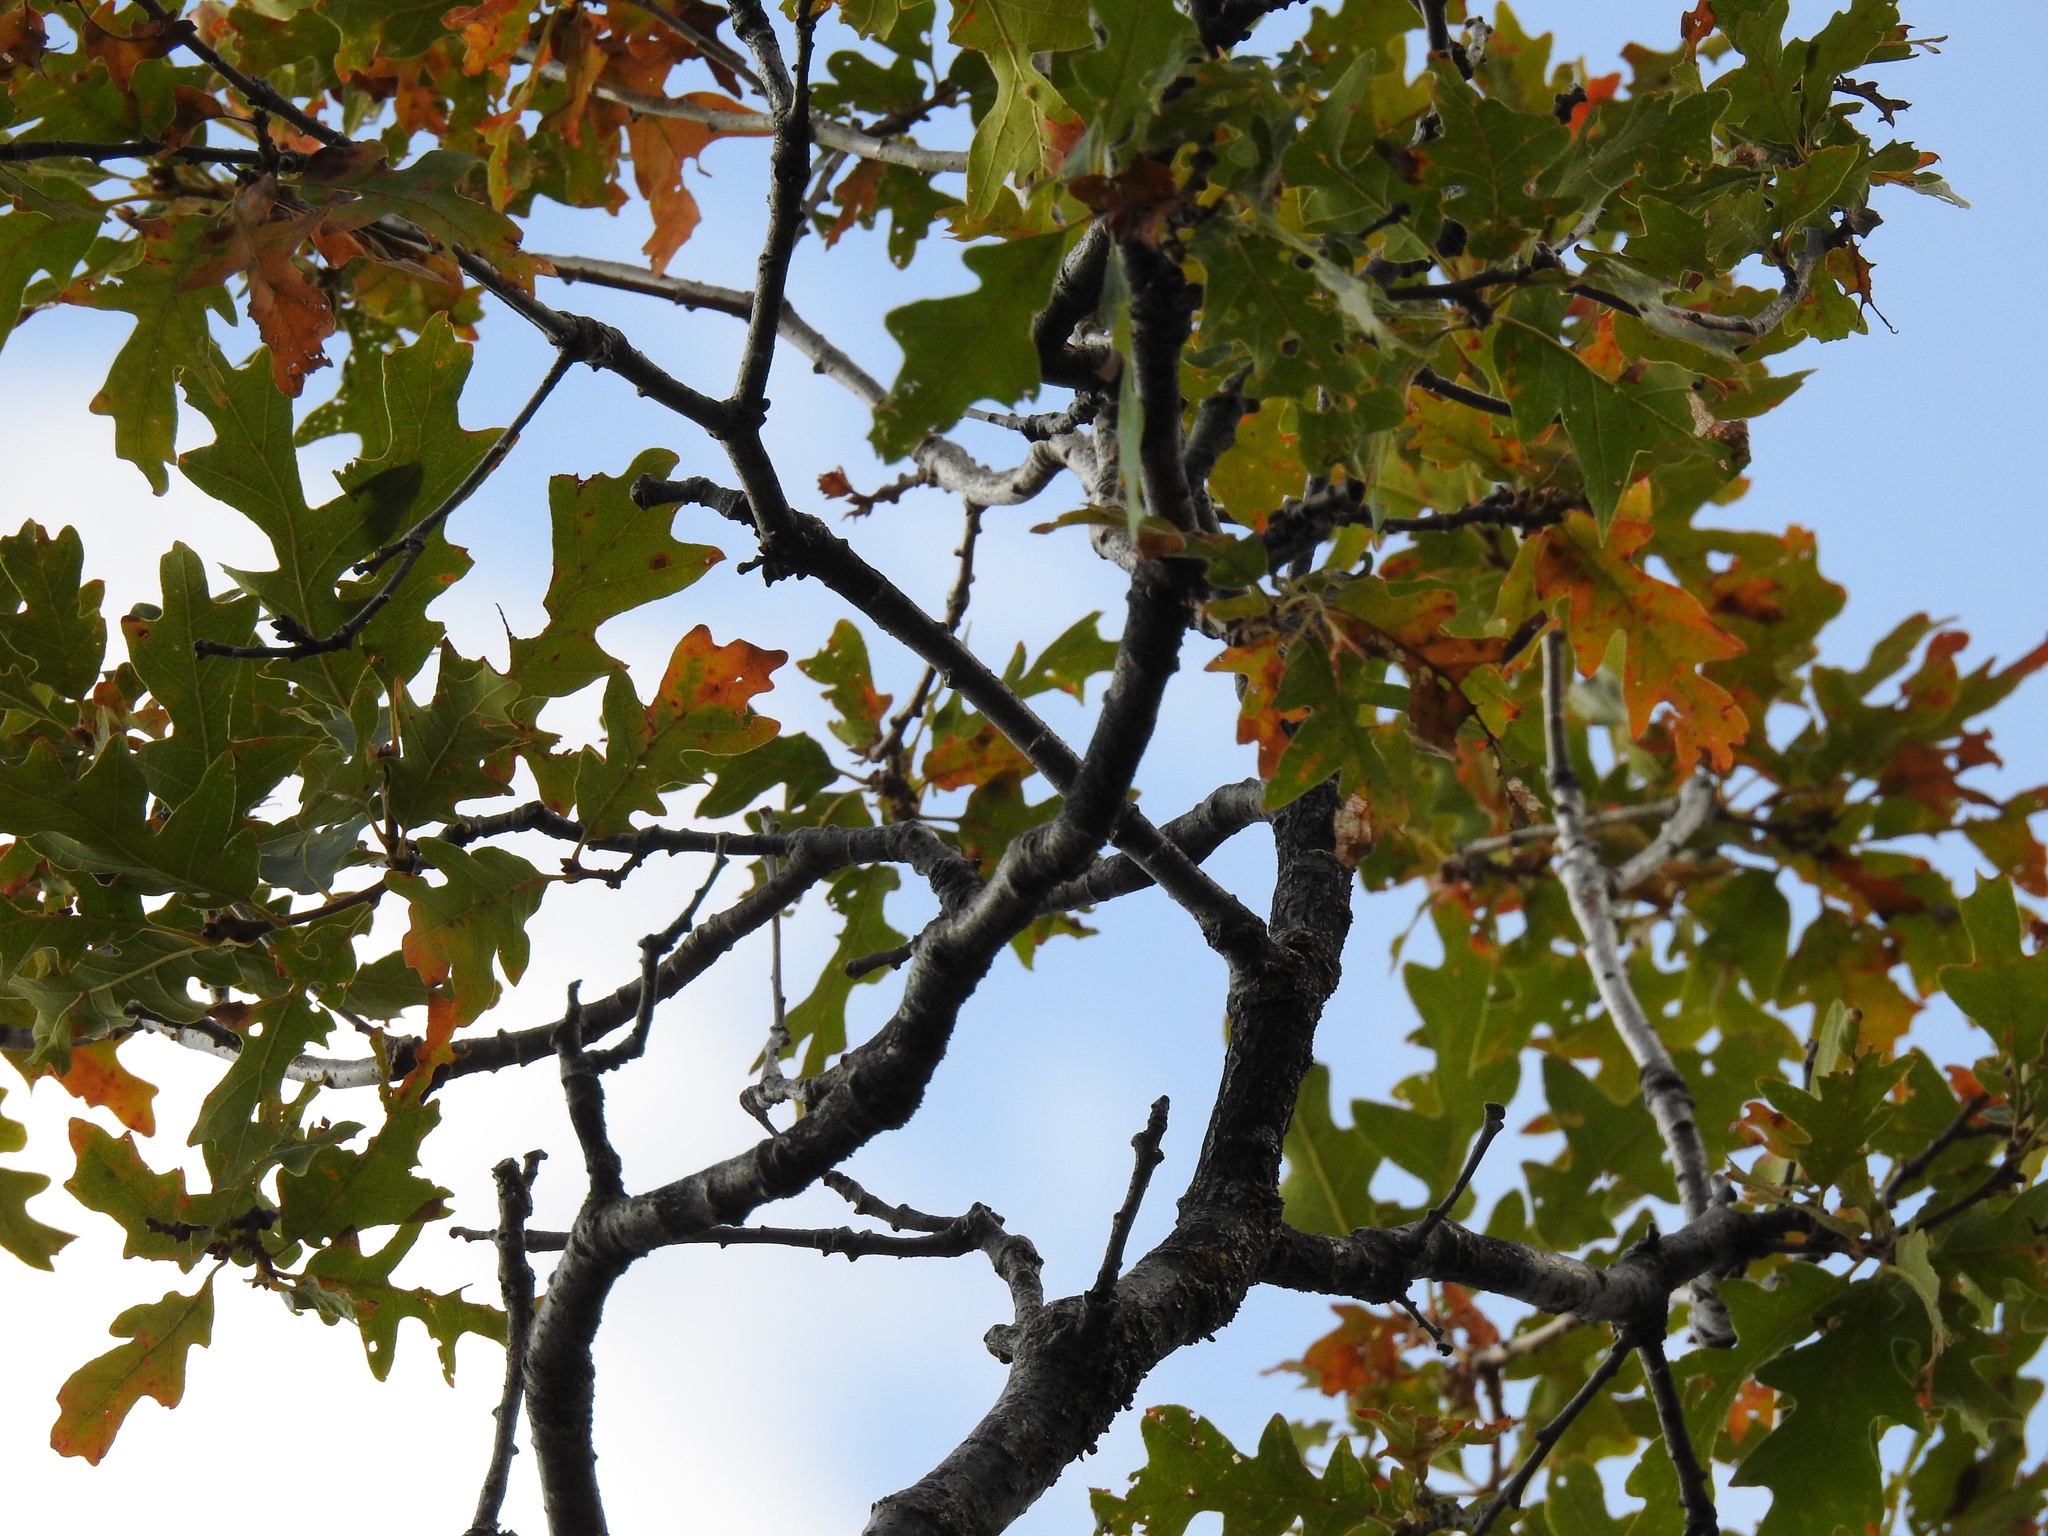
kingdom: Plantae
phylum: Tracheophyta
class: Magnoliopsida
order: Fagales
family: Fagaceae
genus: Quercus
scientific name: Quercus gambelii
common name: Gambel oak
